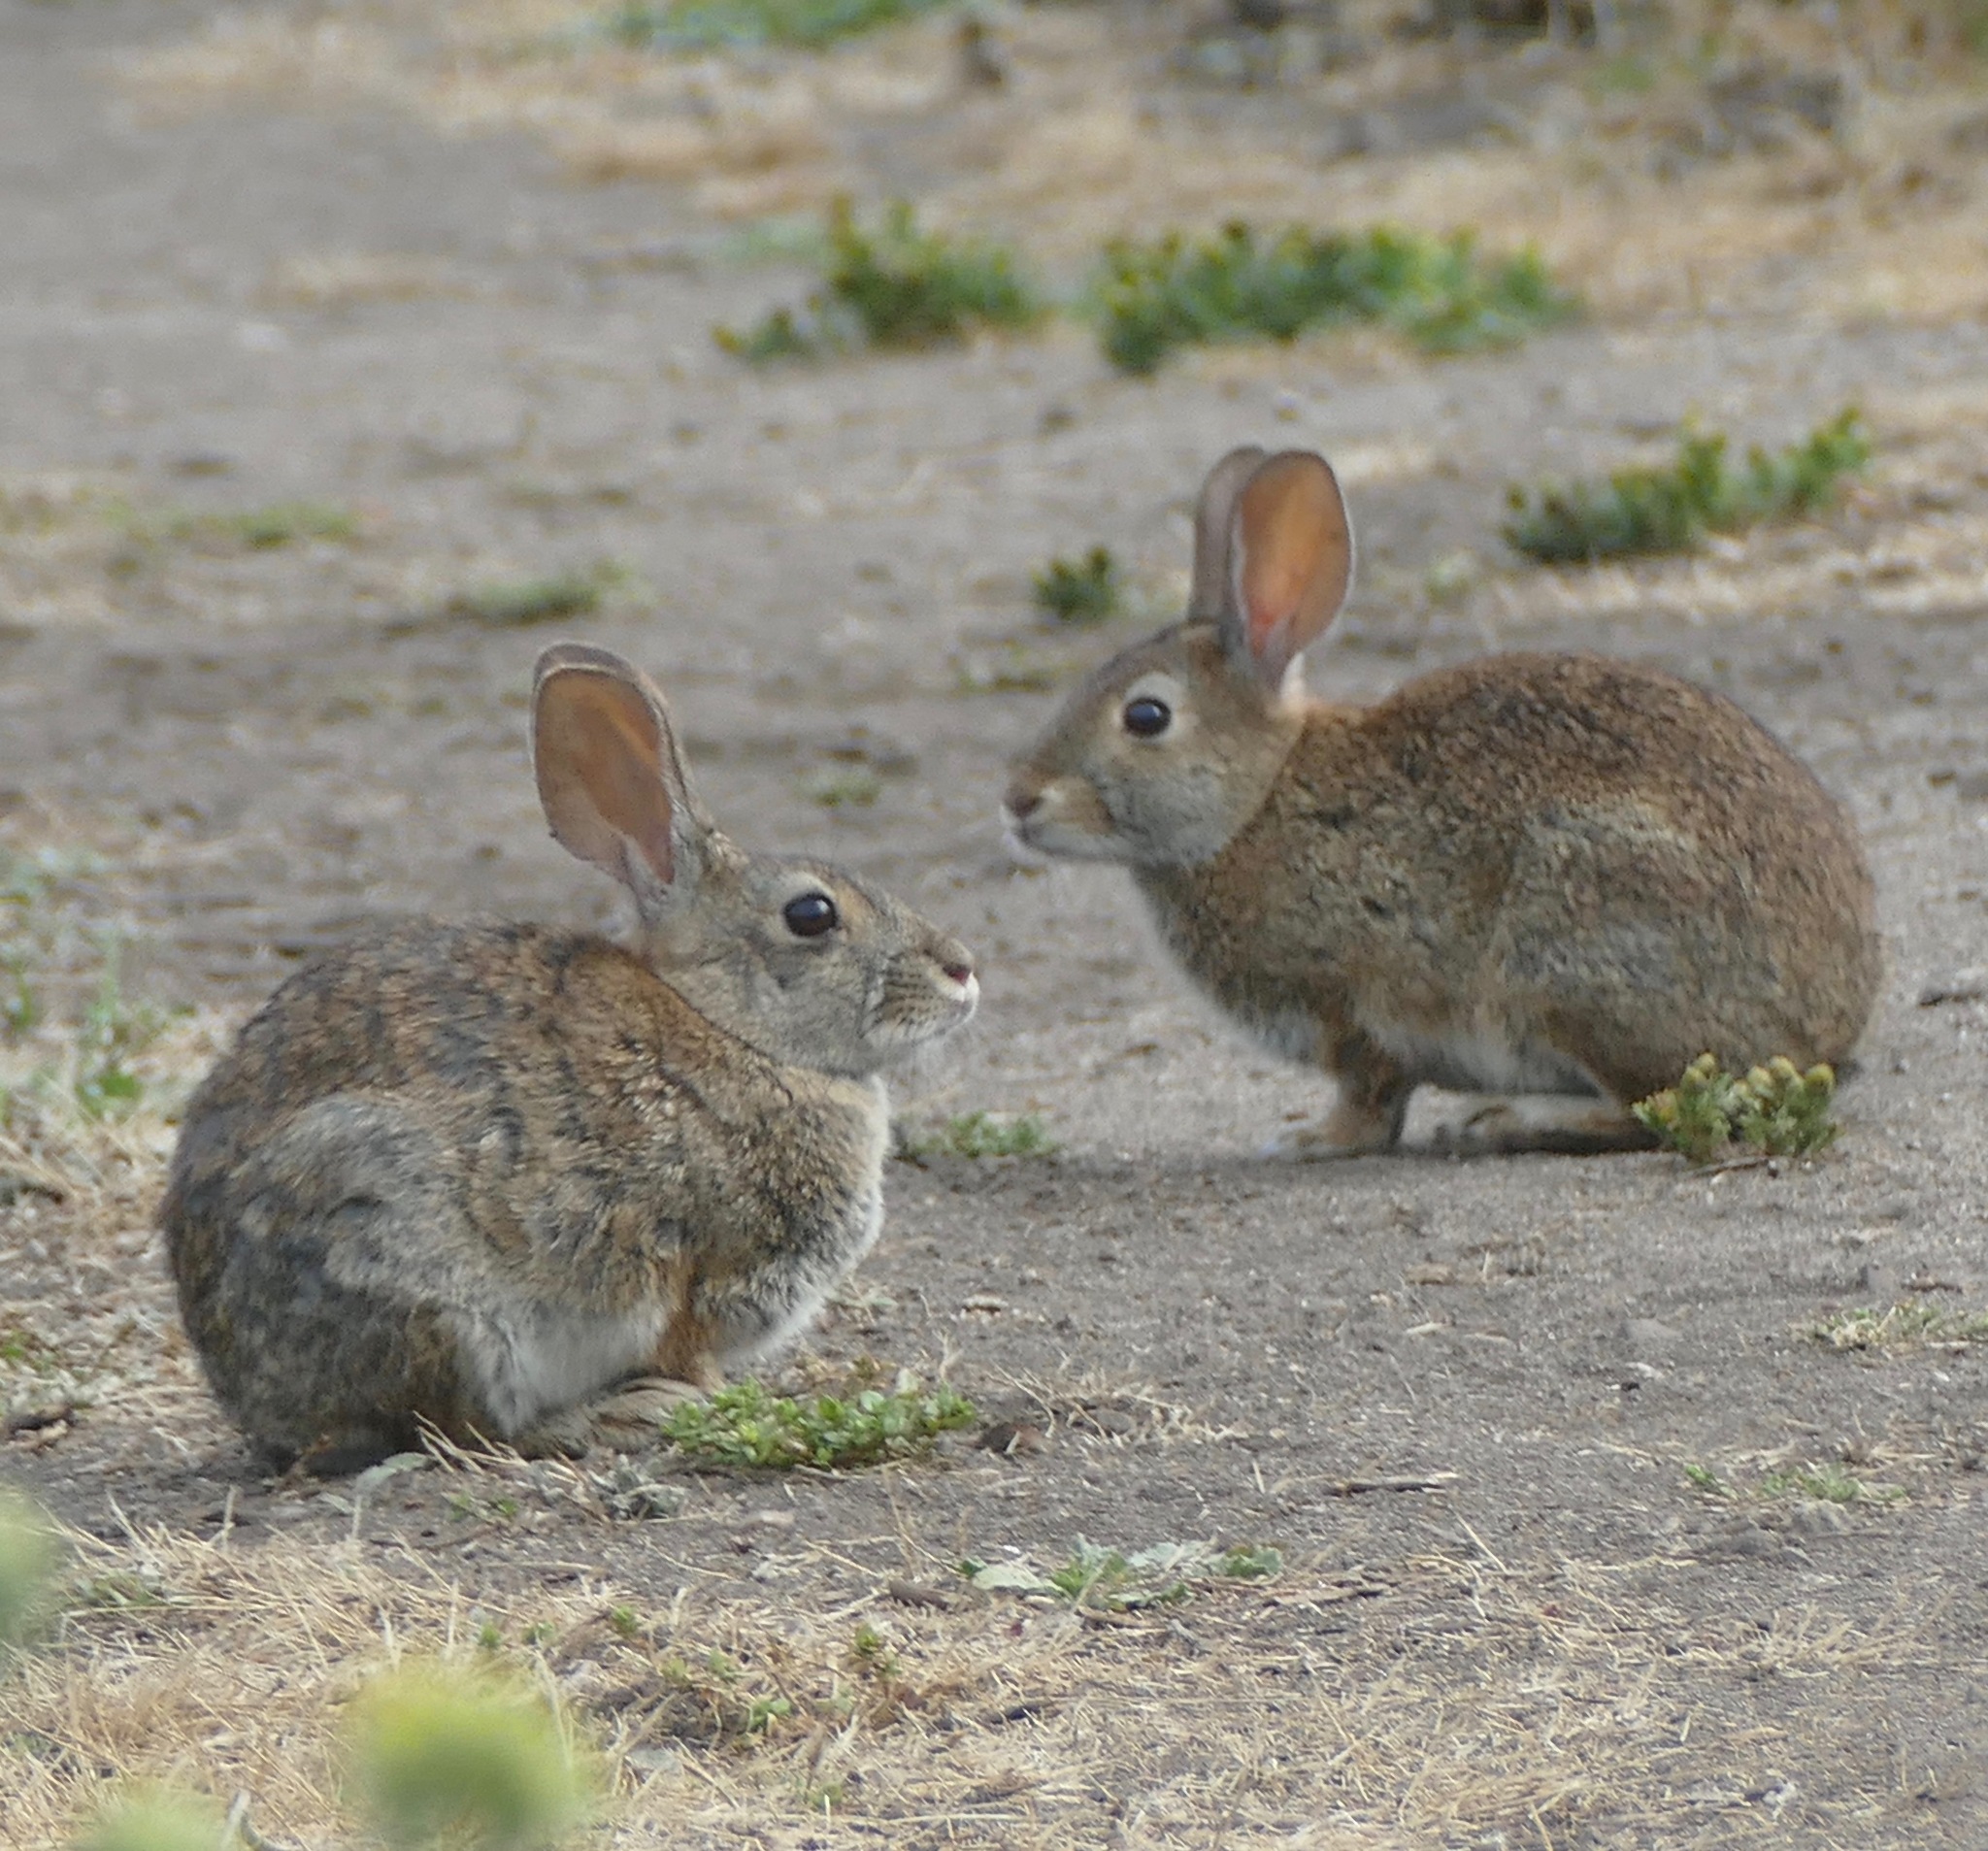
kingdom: Animalia
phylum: Chordata
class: Mammalia
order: Lagomorpha
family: Leporidae
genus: Sylvilagus
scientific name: Sylvilagus bachmani
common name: Brush rabbit
